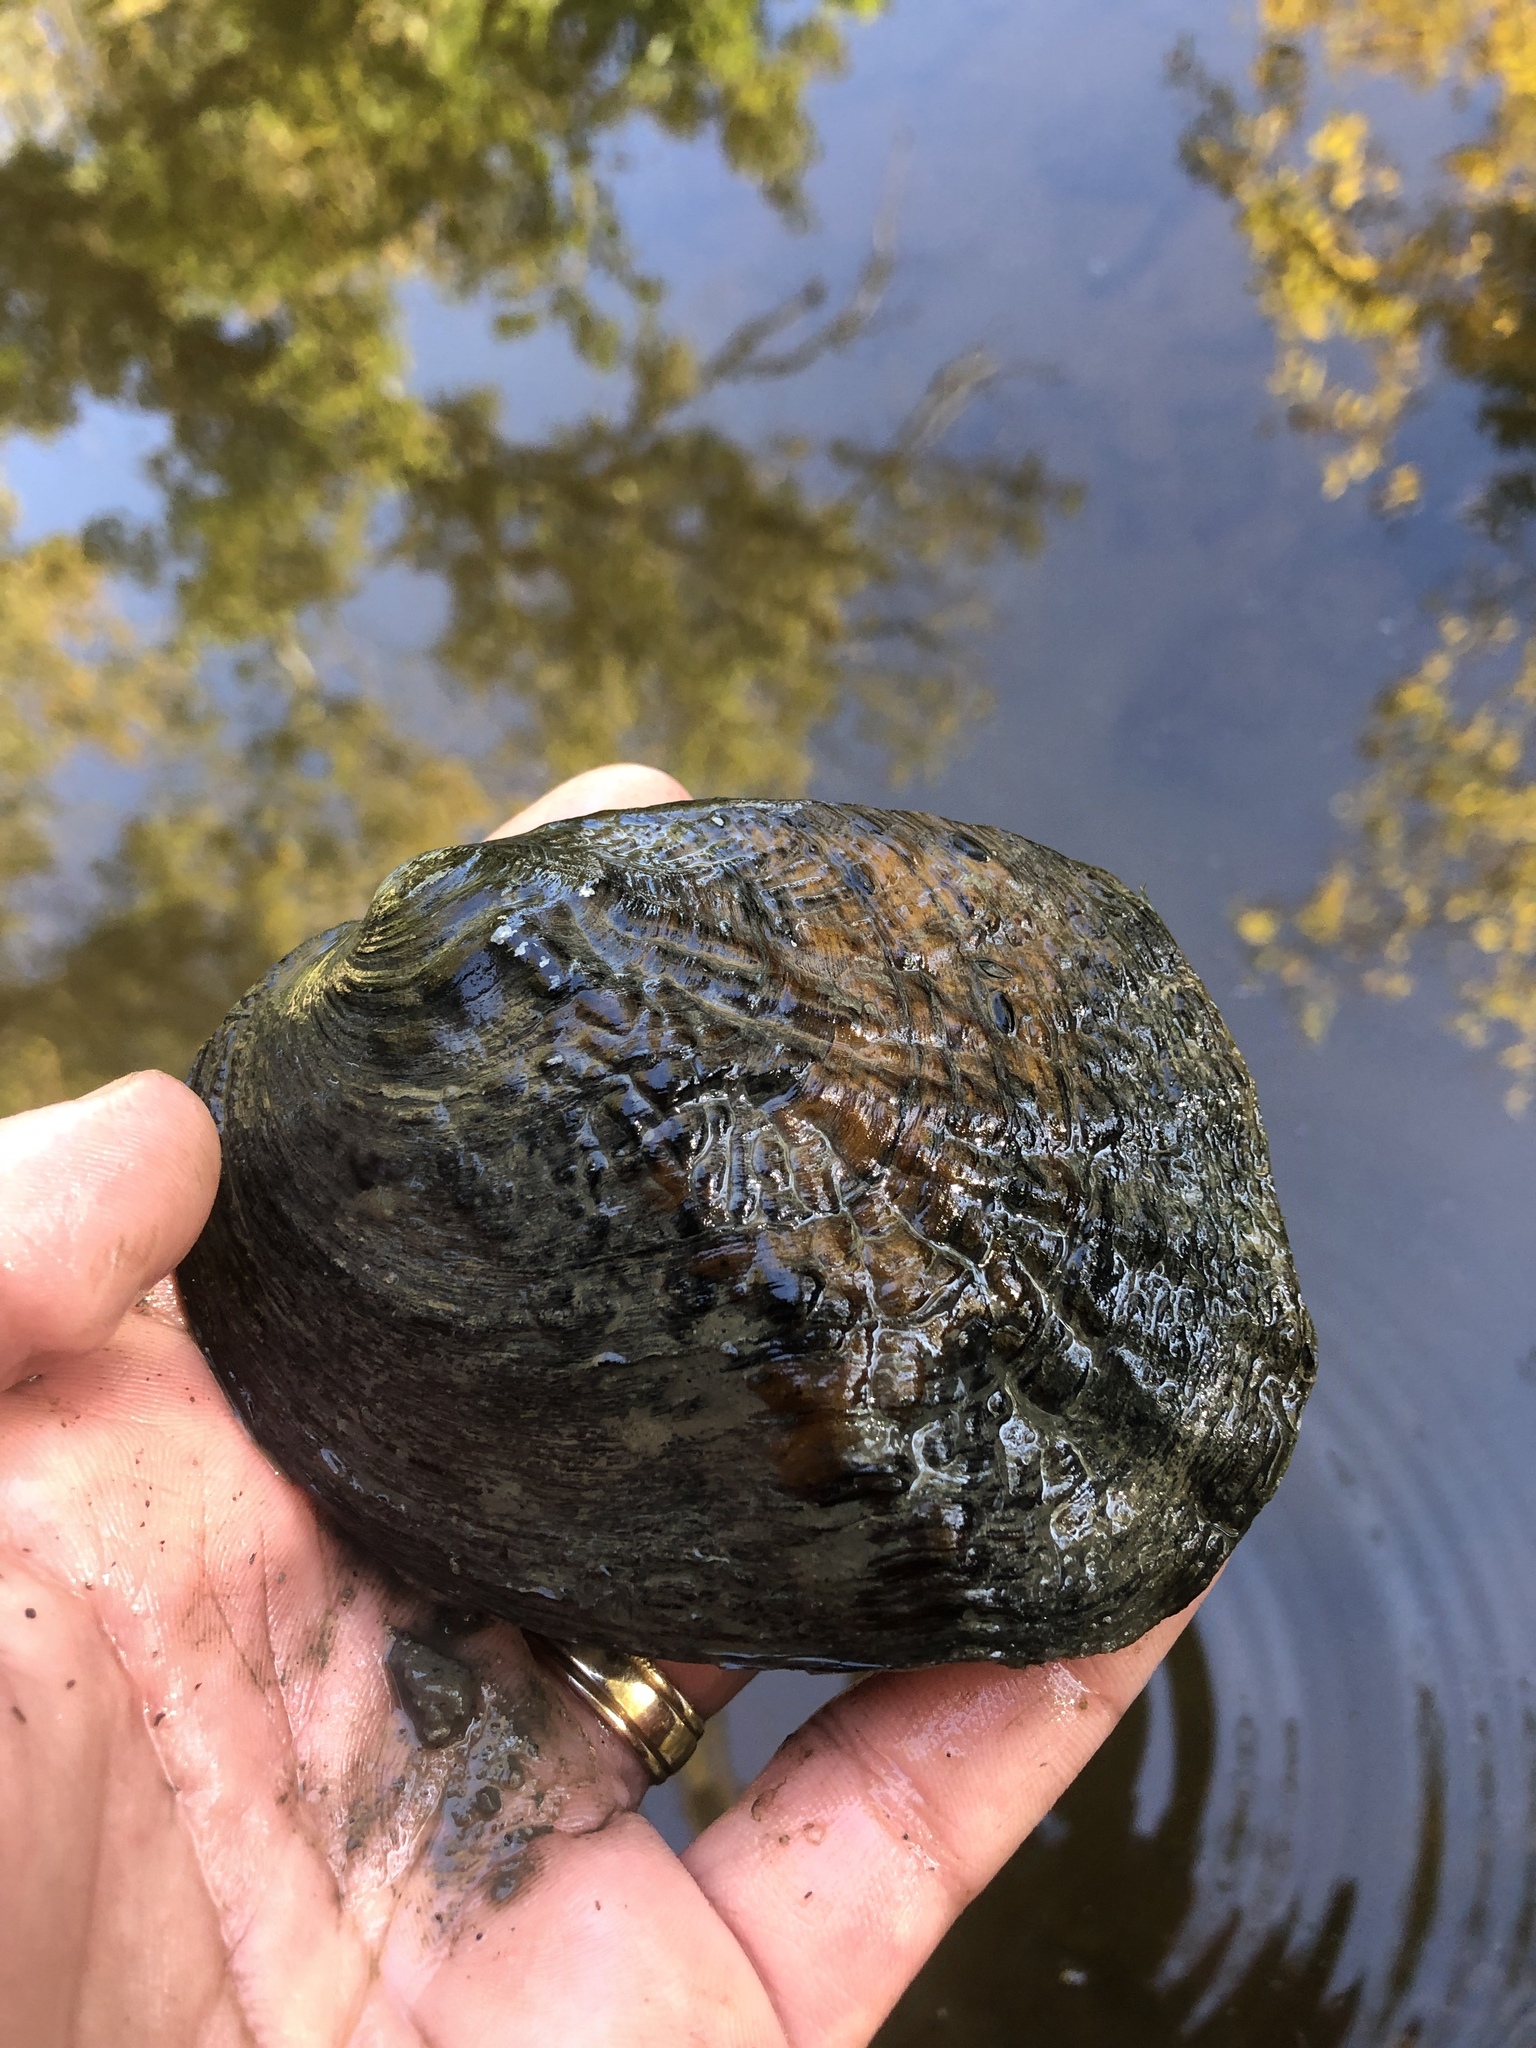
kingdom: Animalia
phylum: Mollusca
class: Bivalvia
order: Unionida
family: Unionidae
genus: Amblema
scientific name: Amblema plicata
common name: Threeridge
